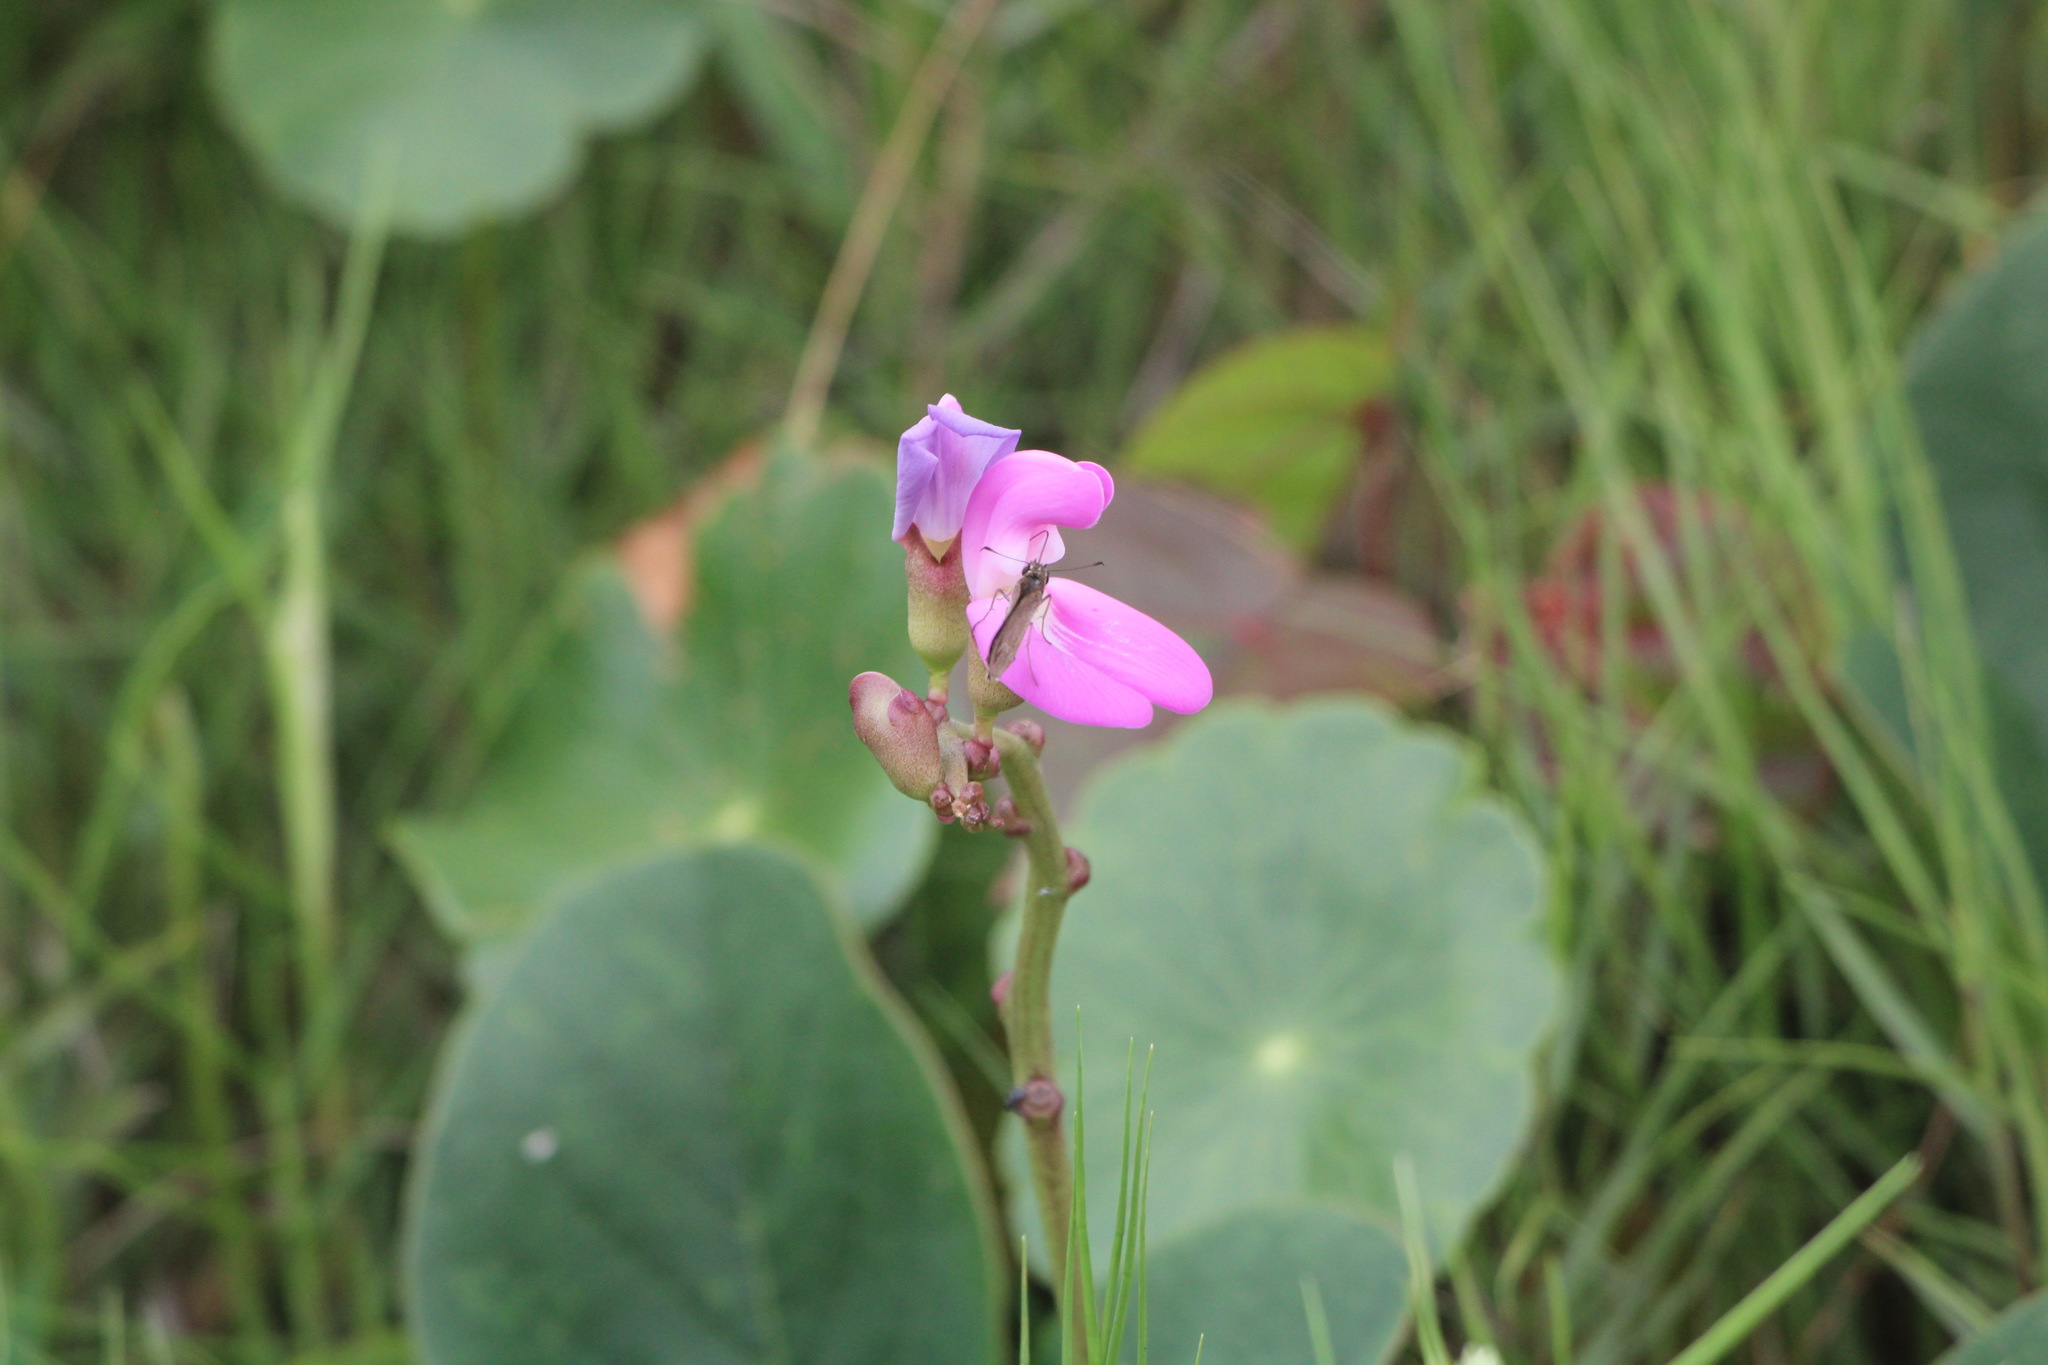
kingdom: Plantae
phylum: Tracheophyta
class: Magnoliopsida
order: Fabales
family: Fabaceae
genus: Canavalia
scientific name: Canavalia rosea
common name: Beach-bean
